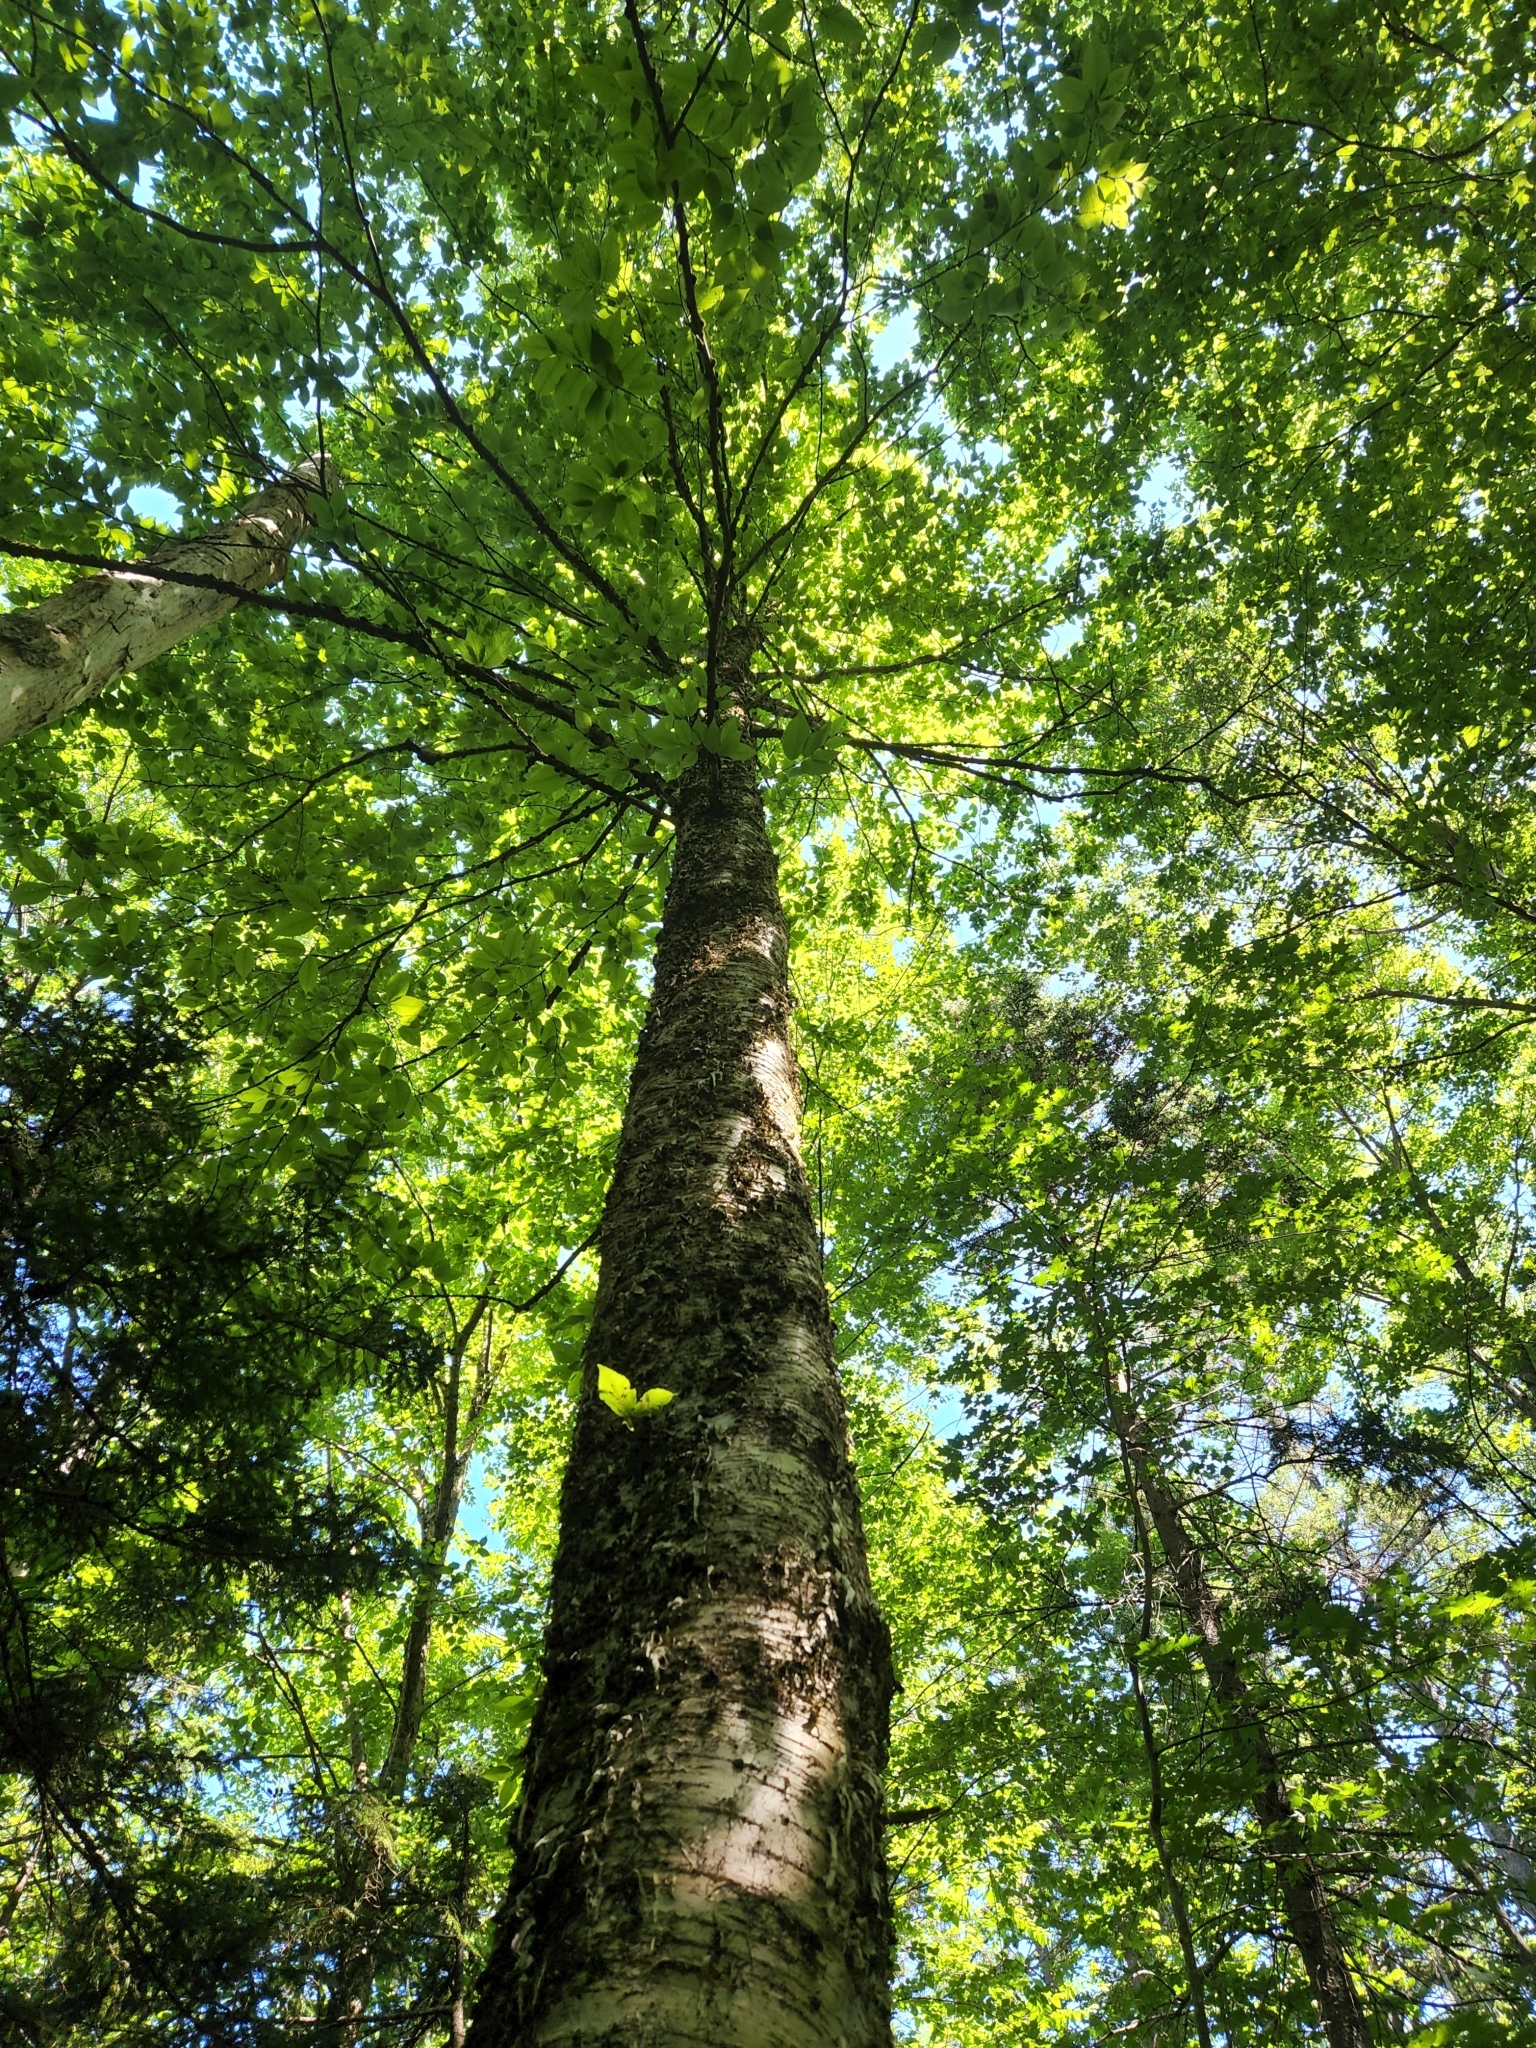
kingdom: Plantae
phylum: Tracheophyta
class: Magnoliopsida
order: Fagales
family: Betulaceae
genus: Betula
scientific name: Betula alleghaniensis
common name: Yellow birch
